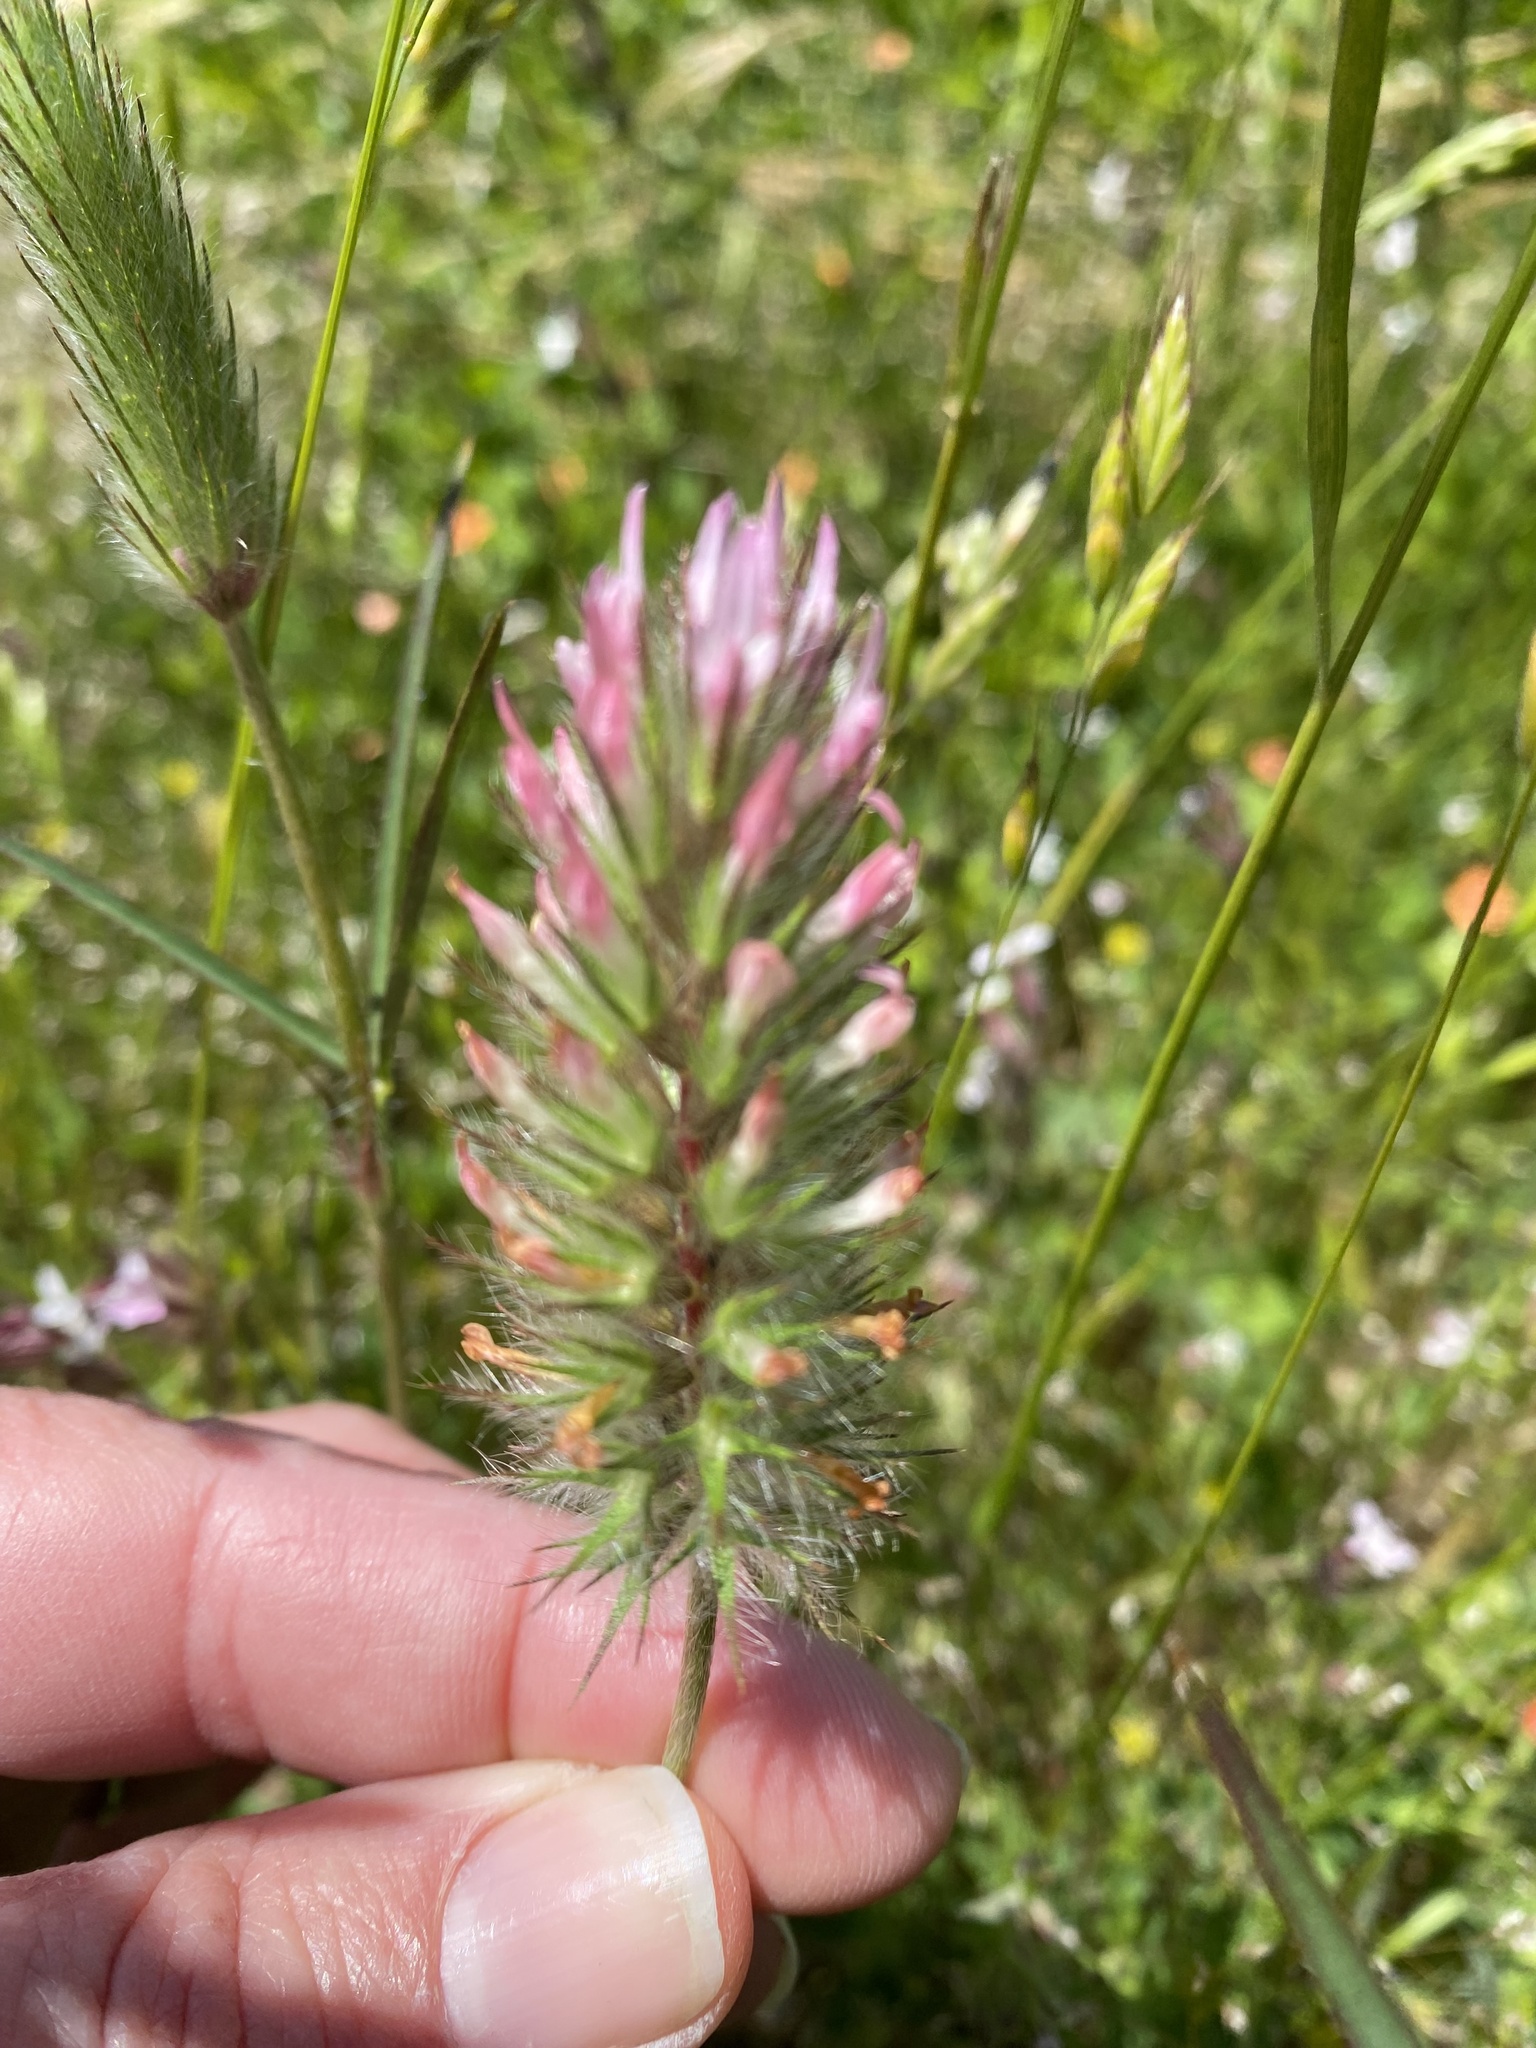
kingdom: Plantae
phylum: Tracheophyta
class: Magnoliopsida
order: Fabales
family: Fabaceae
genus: Trifolium
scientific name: Trifolium angustifolium
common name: Narrow clover
